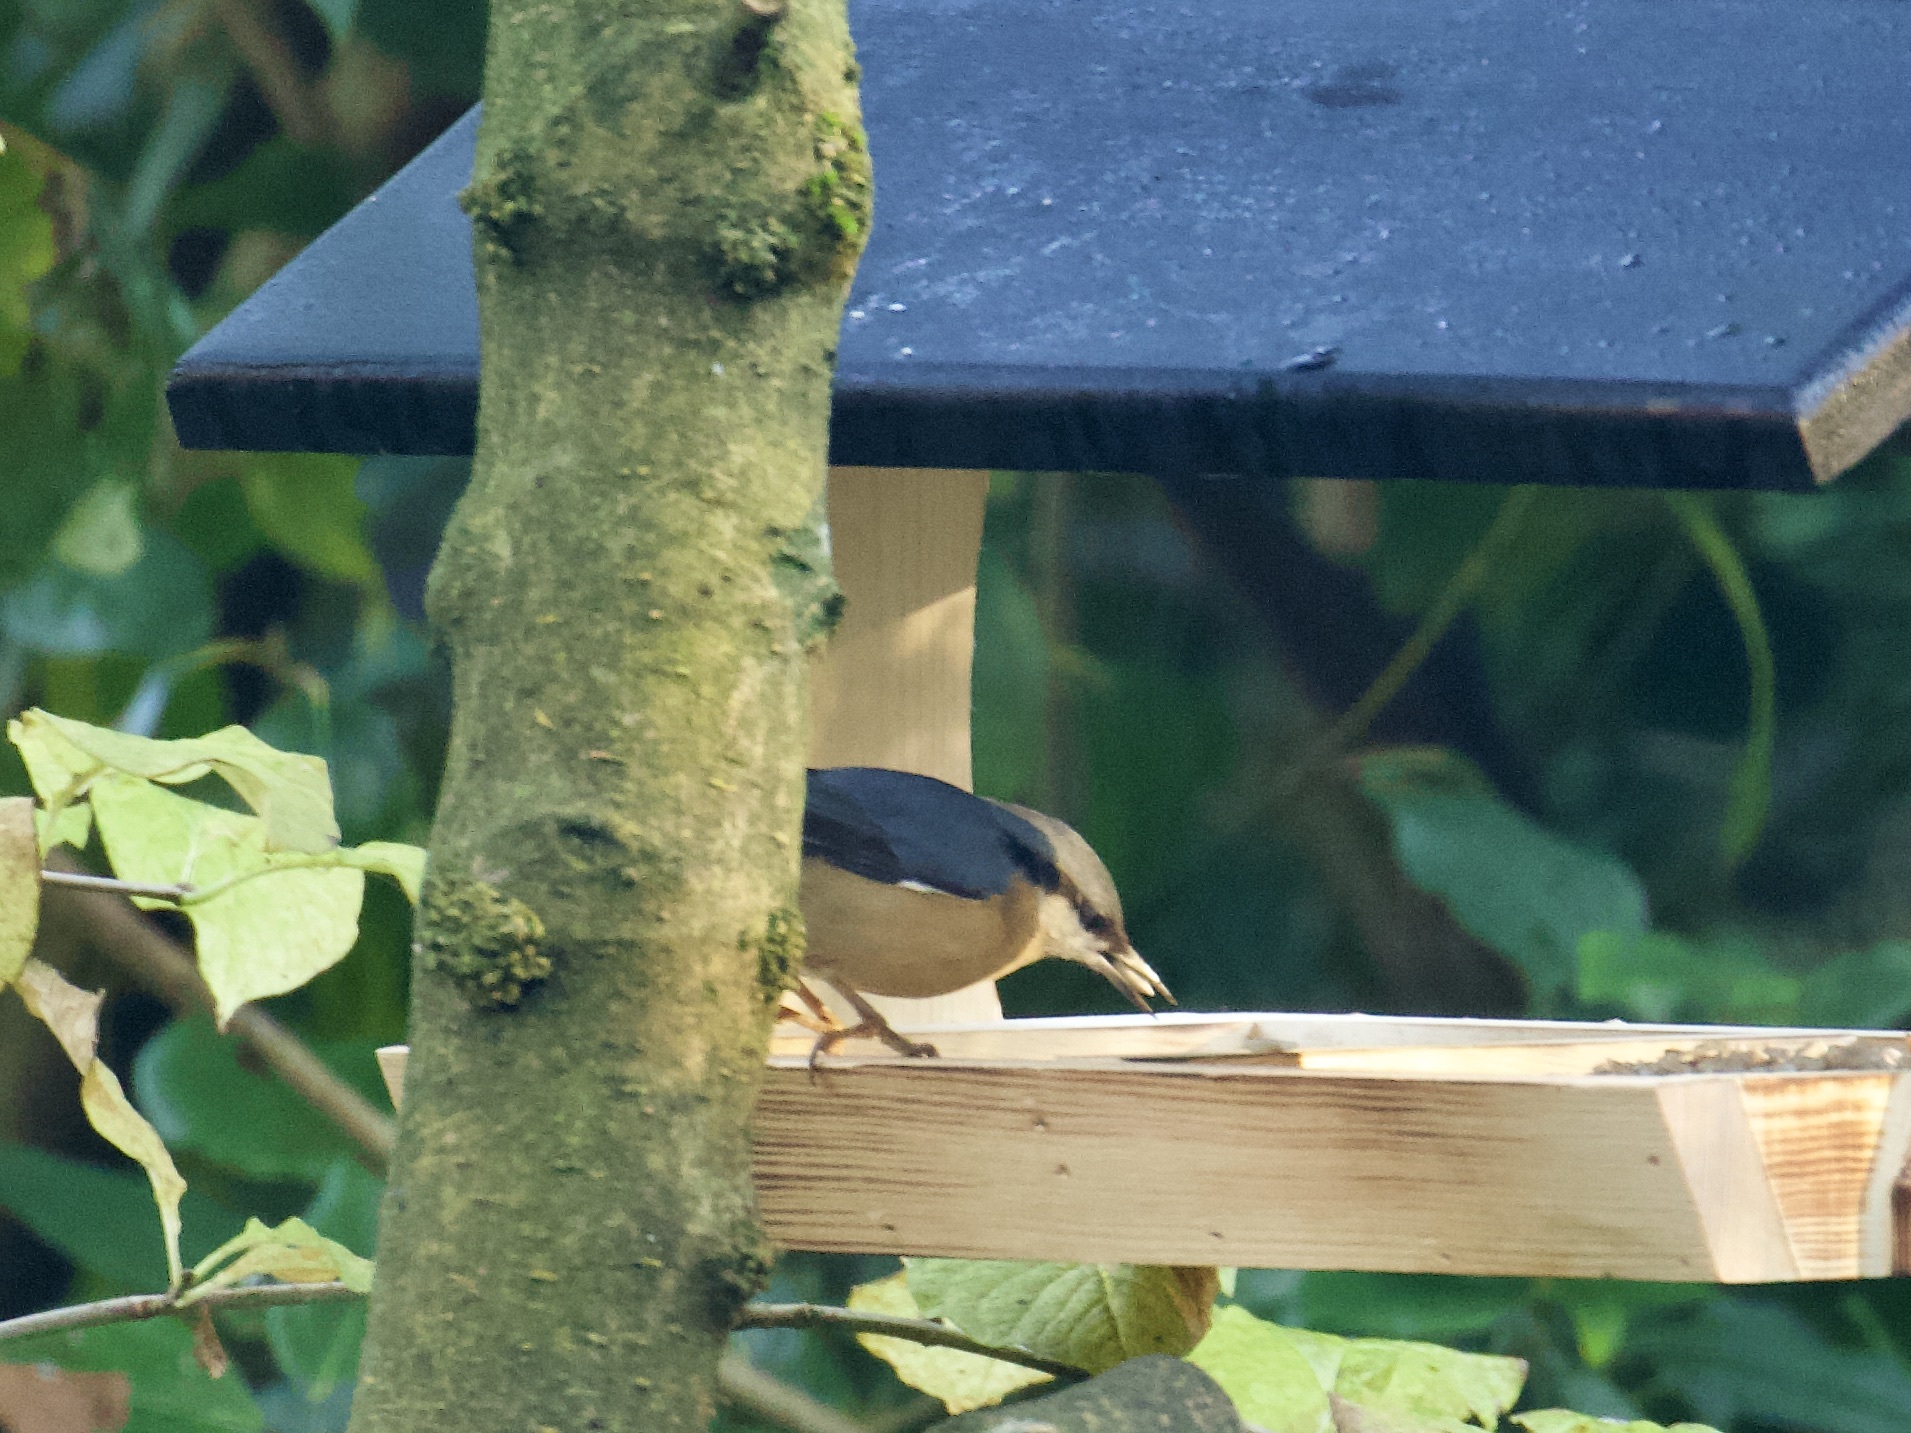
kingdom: Animalia
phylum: Chordata
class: Aves
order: Passeriformes
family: Sittidae
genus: Sitta
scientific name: Sitta europaea
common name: Eurasian nuthatch
